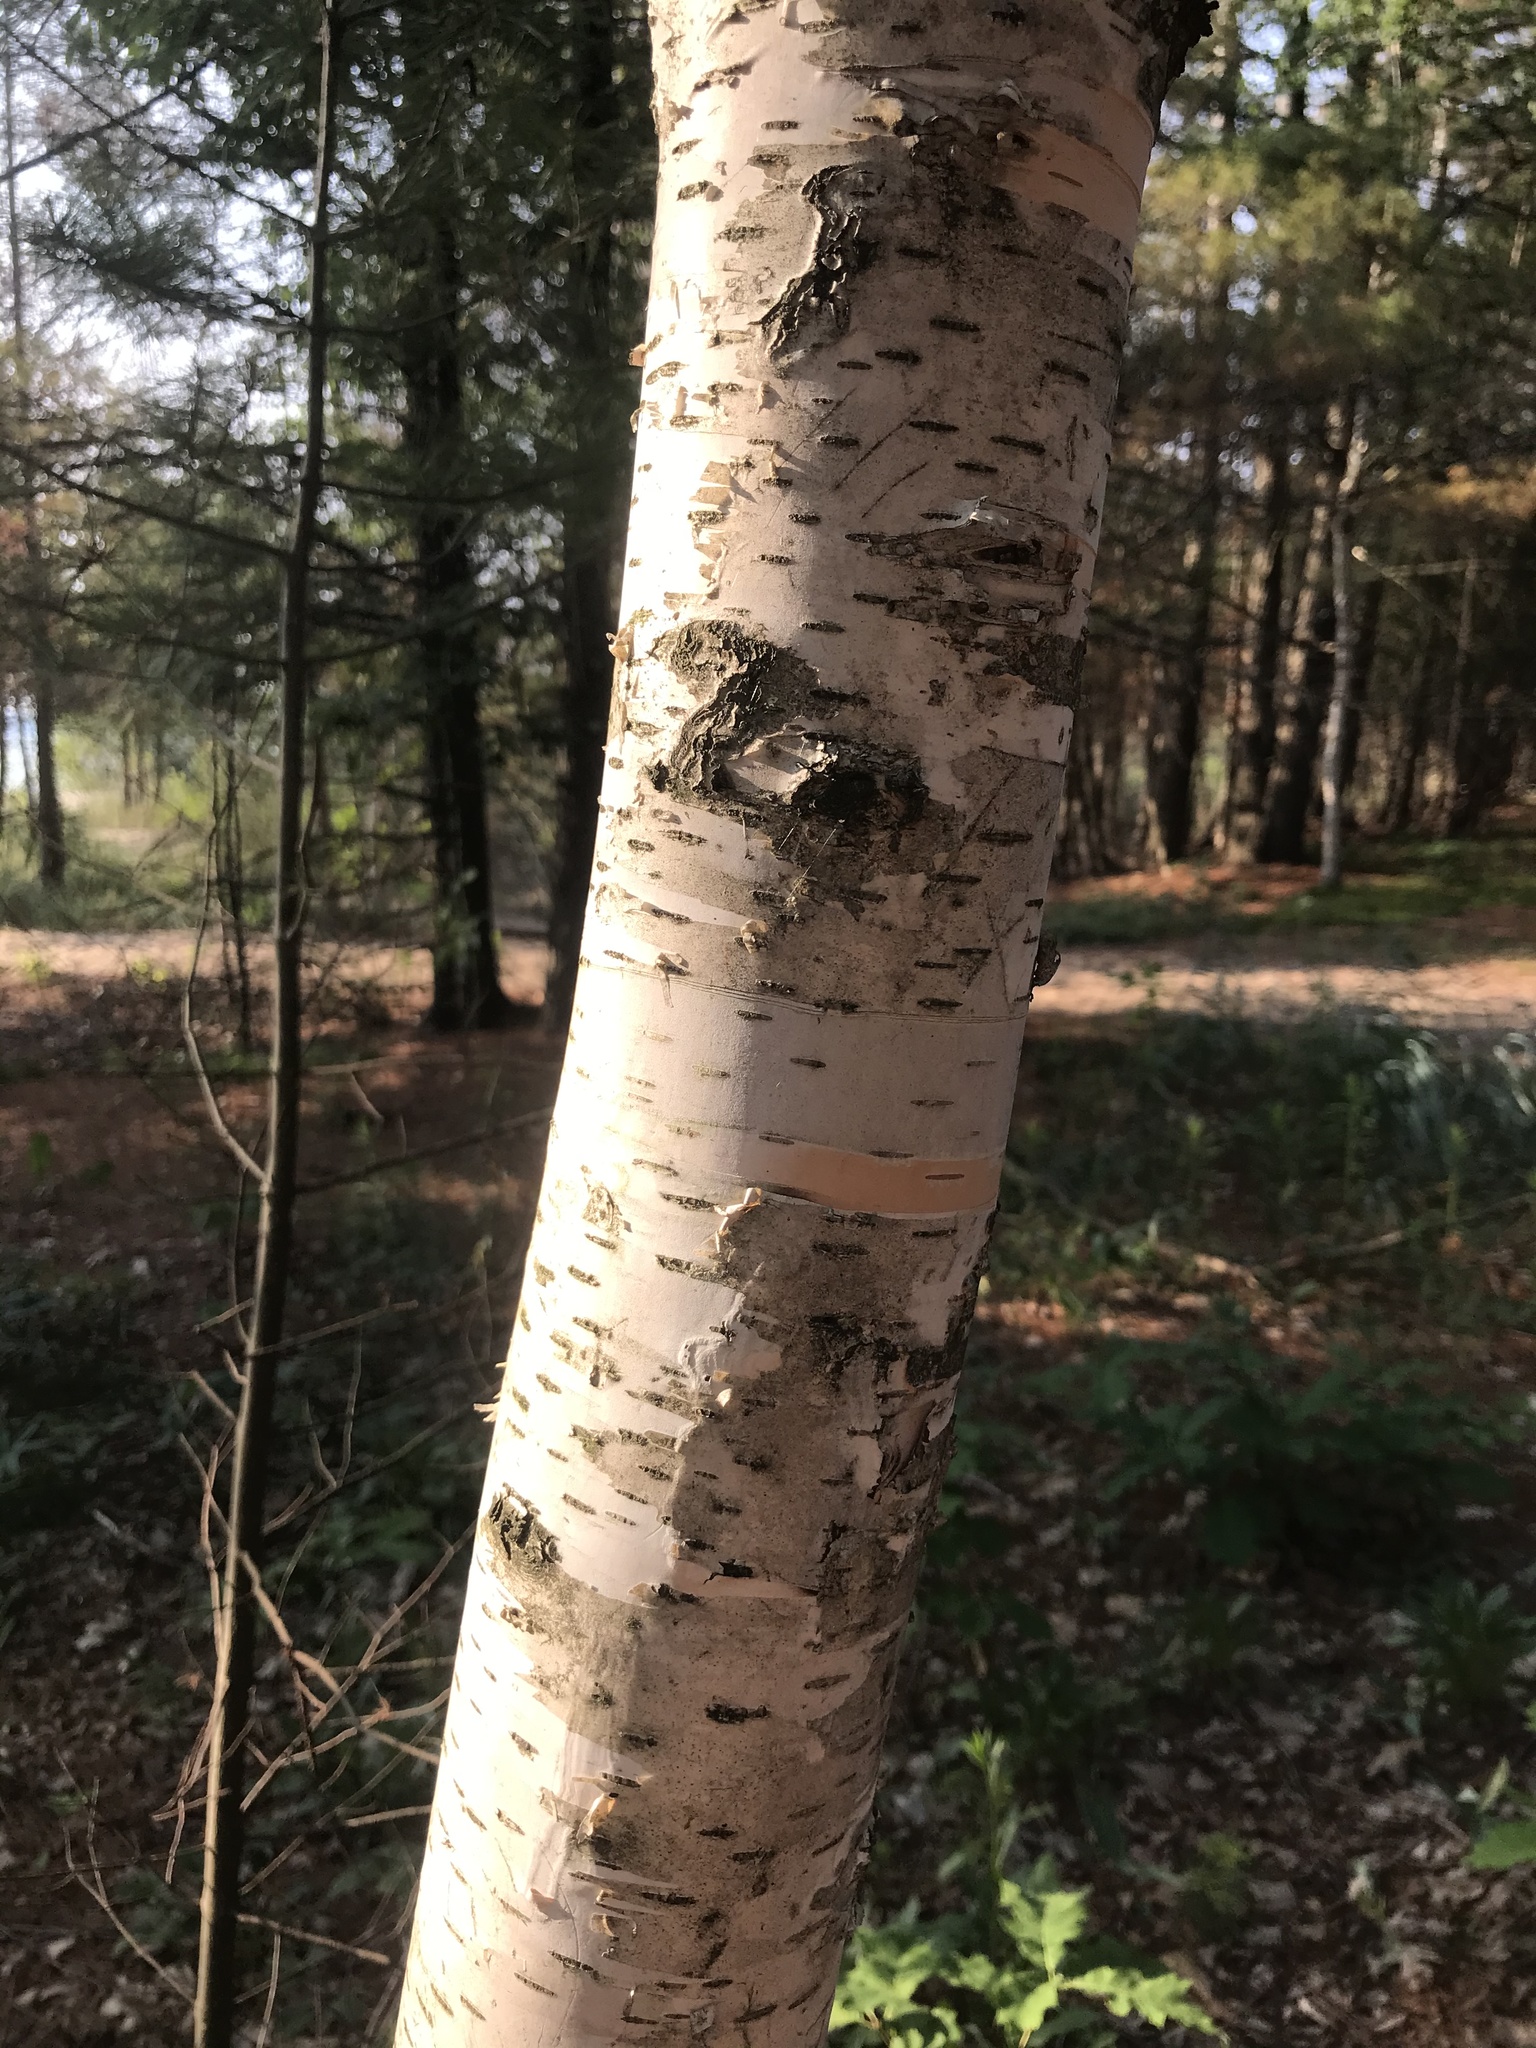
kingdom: Plantae
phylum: Tracheophyta
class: Magnoliopsida
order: Fagales
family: Betulaceae
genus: Betula
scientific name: Betula papyrifera
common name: Paper birch
